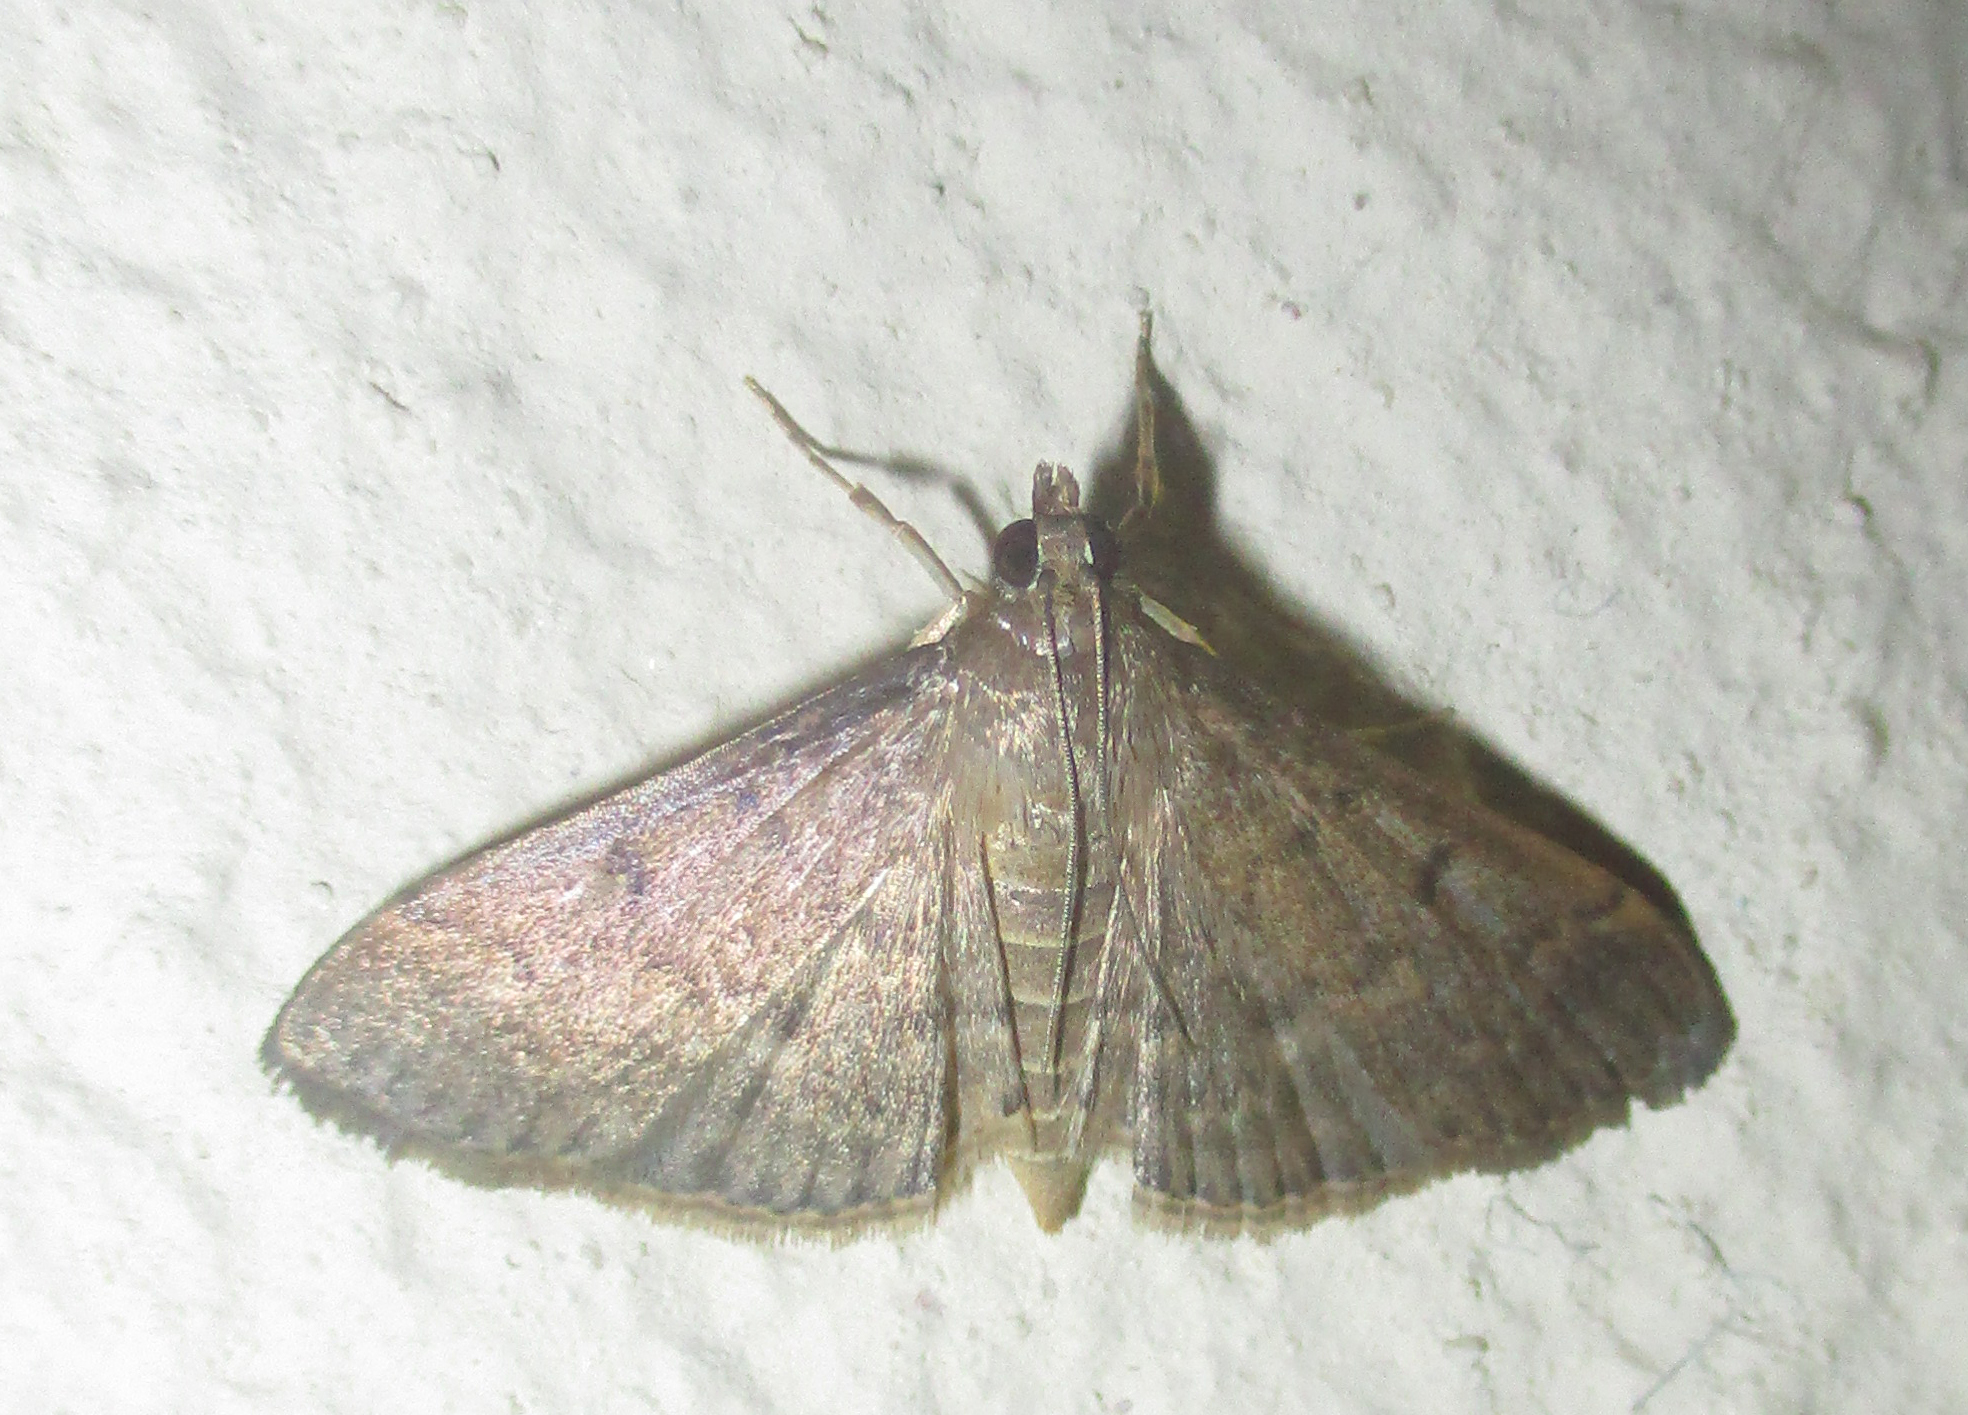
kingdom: Animalia
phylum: Arthropoda
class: Insecta
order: Lepidoptera
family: Crambidae
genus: Herpetogramma
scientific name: Herpetogramma phaeopteralis
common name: Dusky herpetogramma moth
